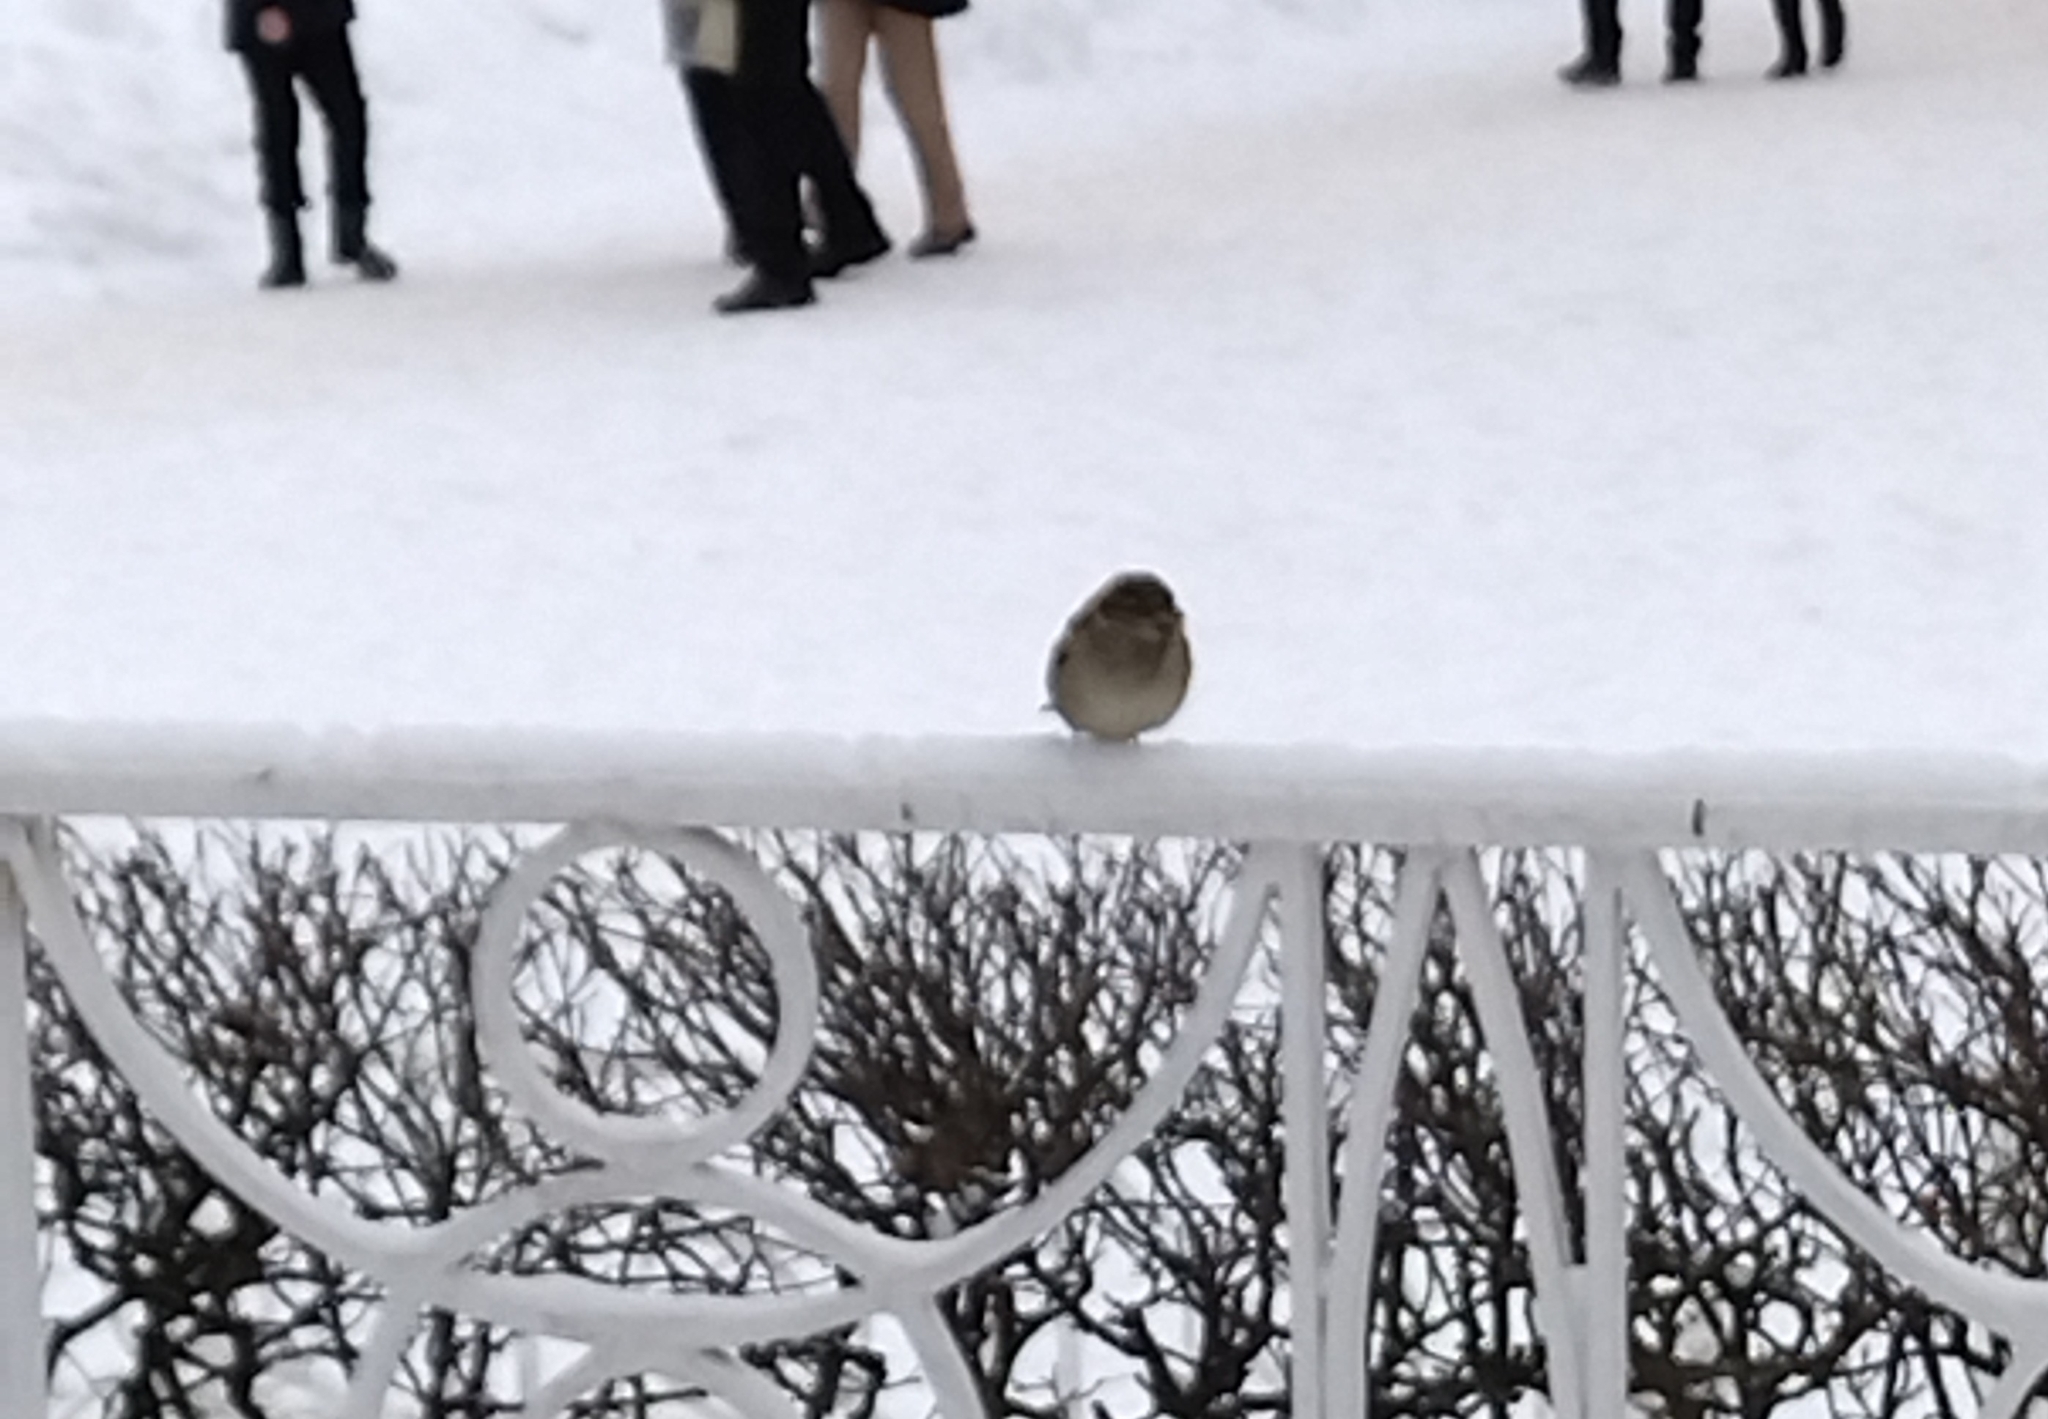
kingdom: Animalia
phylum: Chordata
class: Aves
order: Passeriformes
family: Passeridae
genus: Passer
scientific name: Passer domesticus
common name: House sparrow
